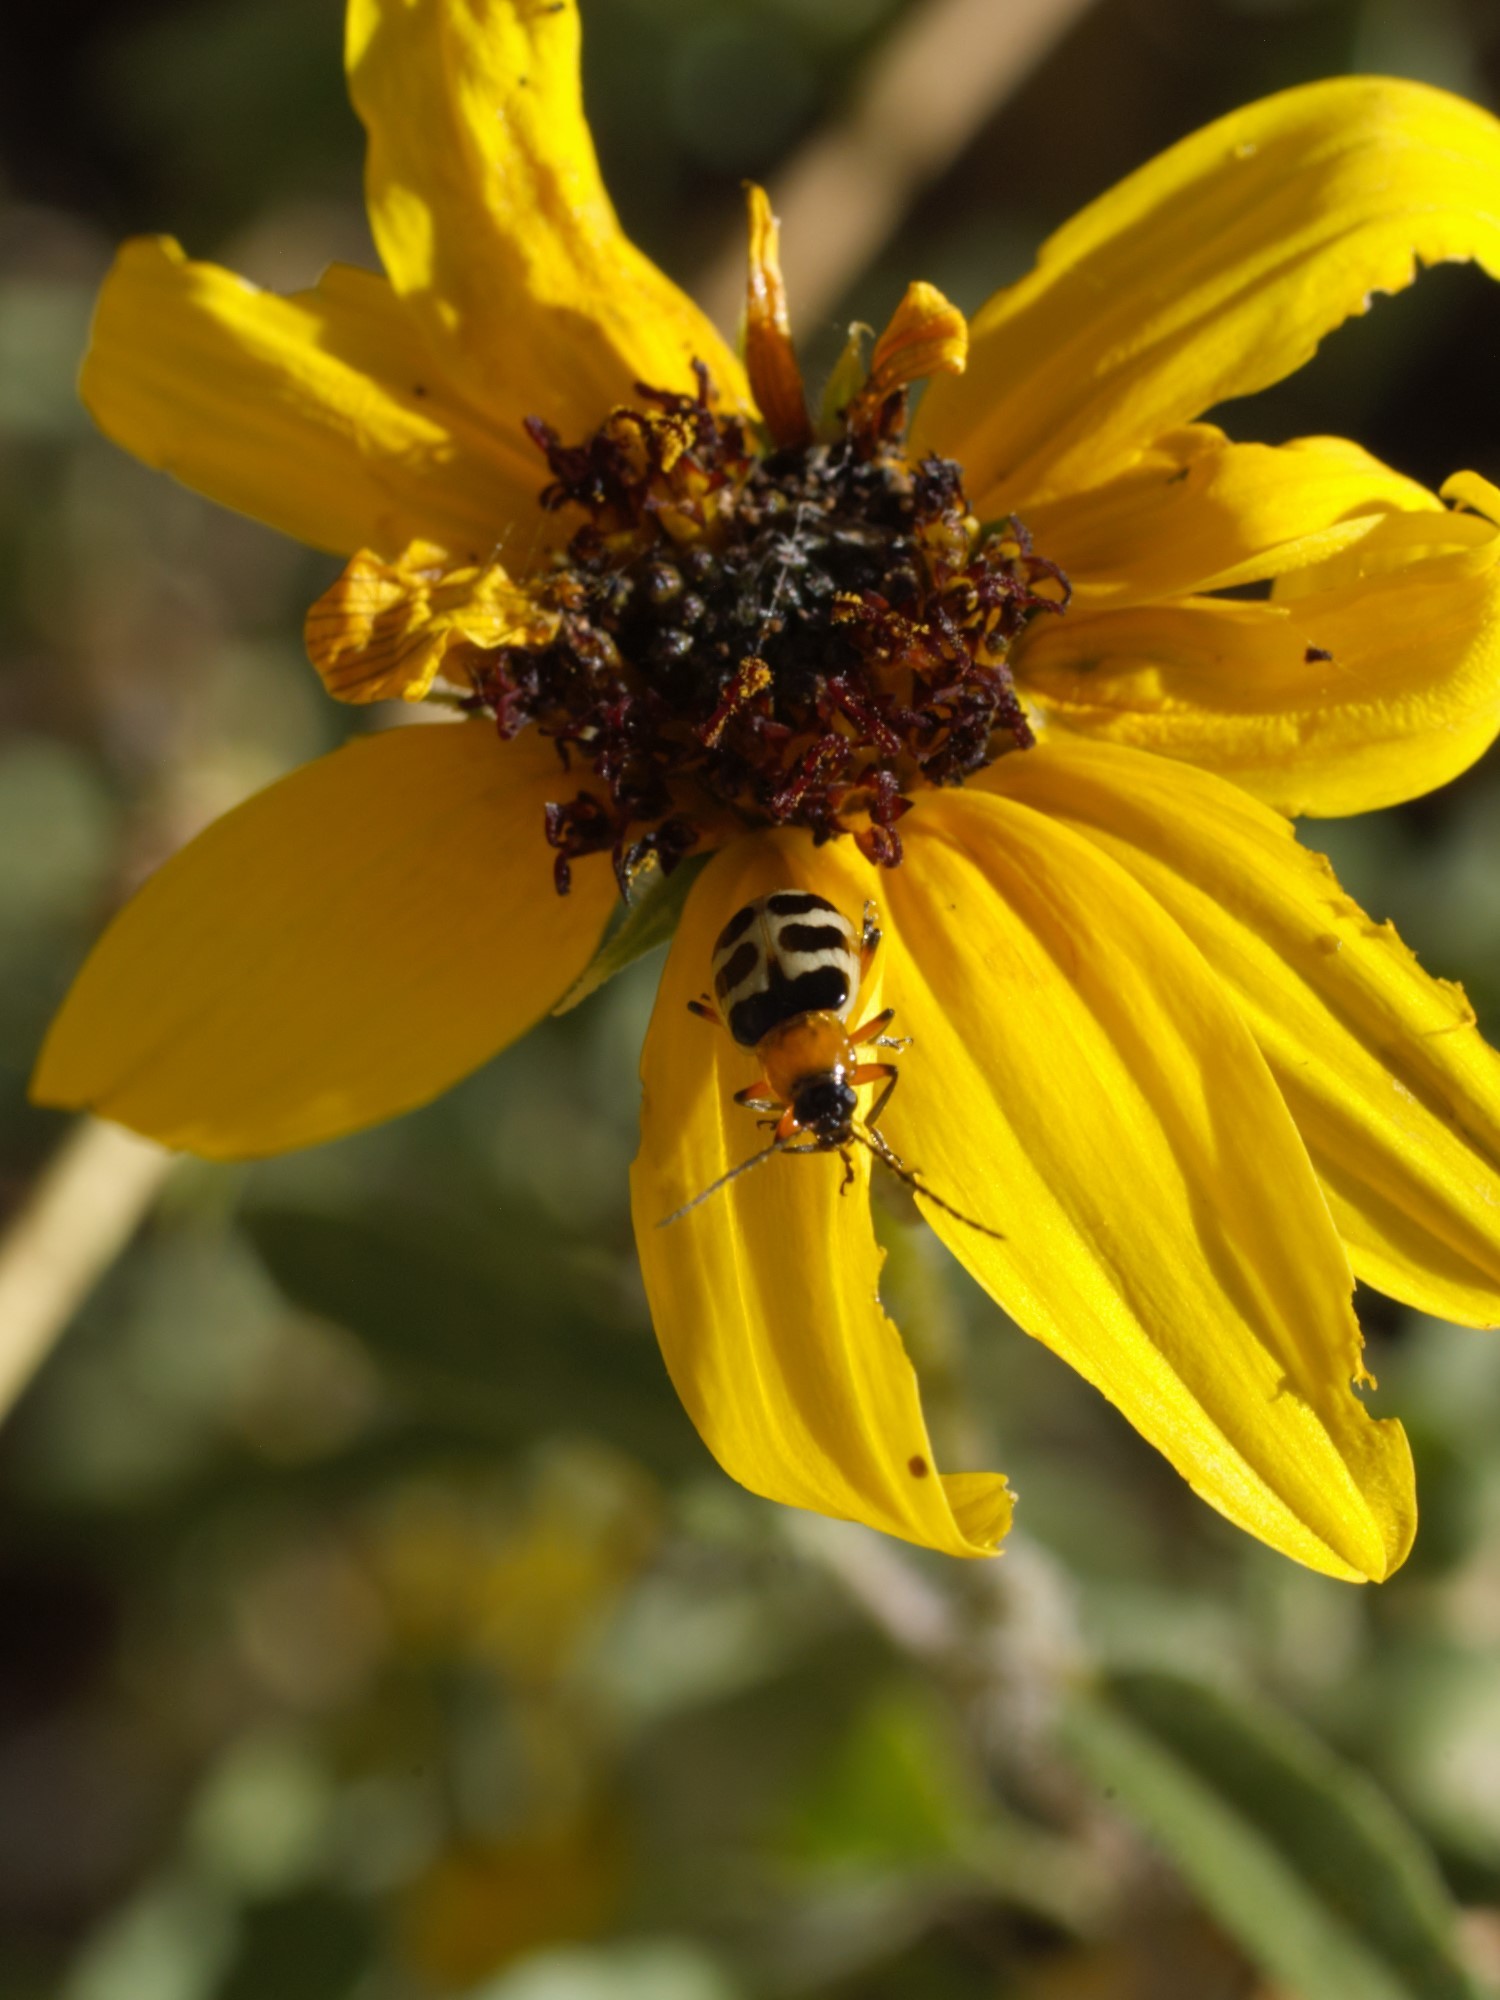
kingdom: Animalia
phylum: Arthropoda
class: Insecta
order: Coleoptera
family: Chrysomelidae
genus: Paranapiacaba
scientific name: Paranapiacaba tricincta
